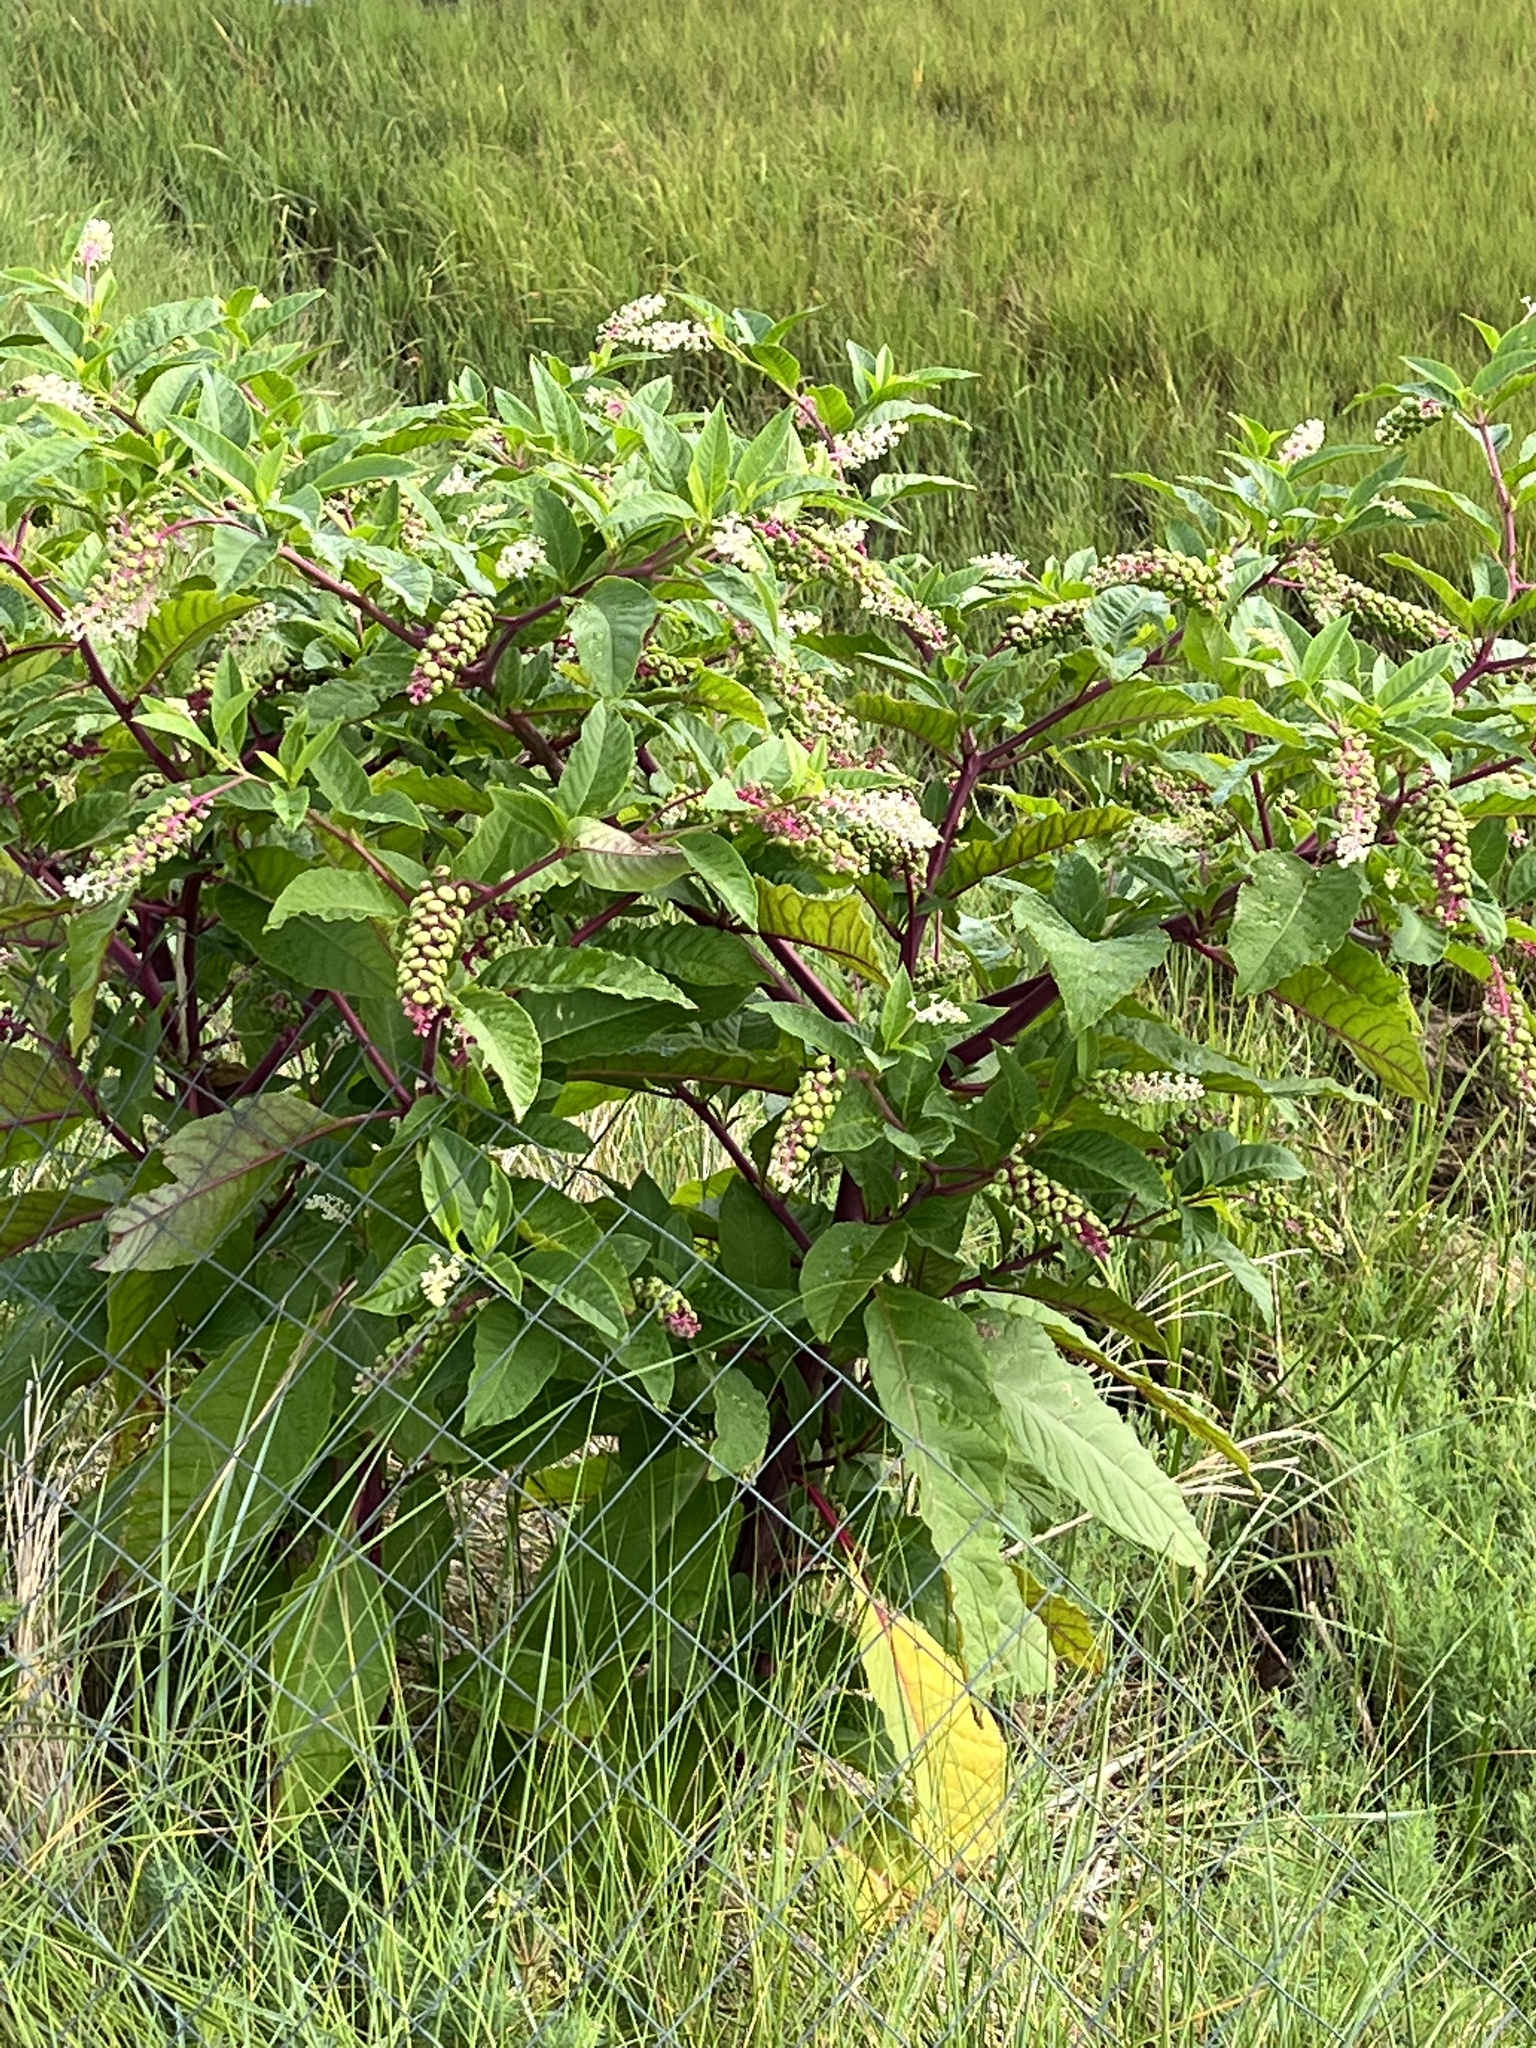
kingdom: Plantae
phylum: Tracheophyta
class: Magnoliopsida
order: Caryophyllales
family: Phytolaccaceae
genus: Phytolacca
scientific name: Phytolacca americana
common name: American pokeweed
